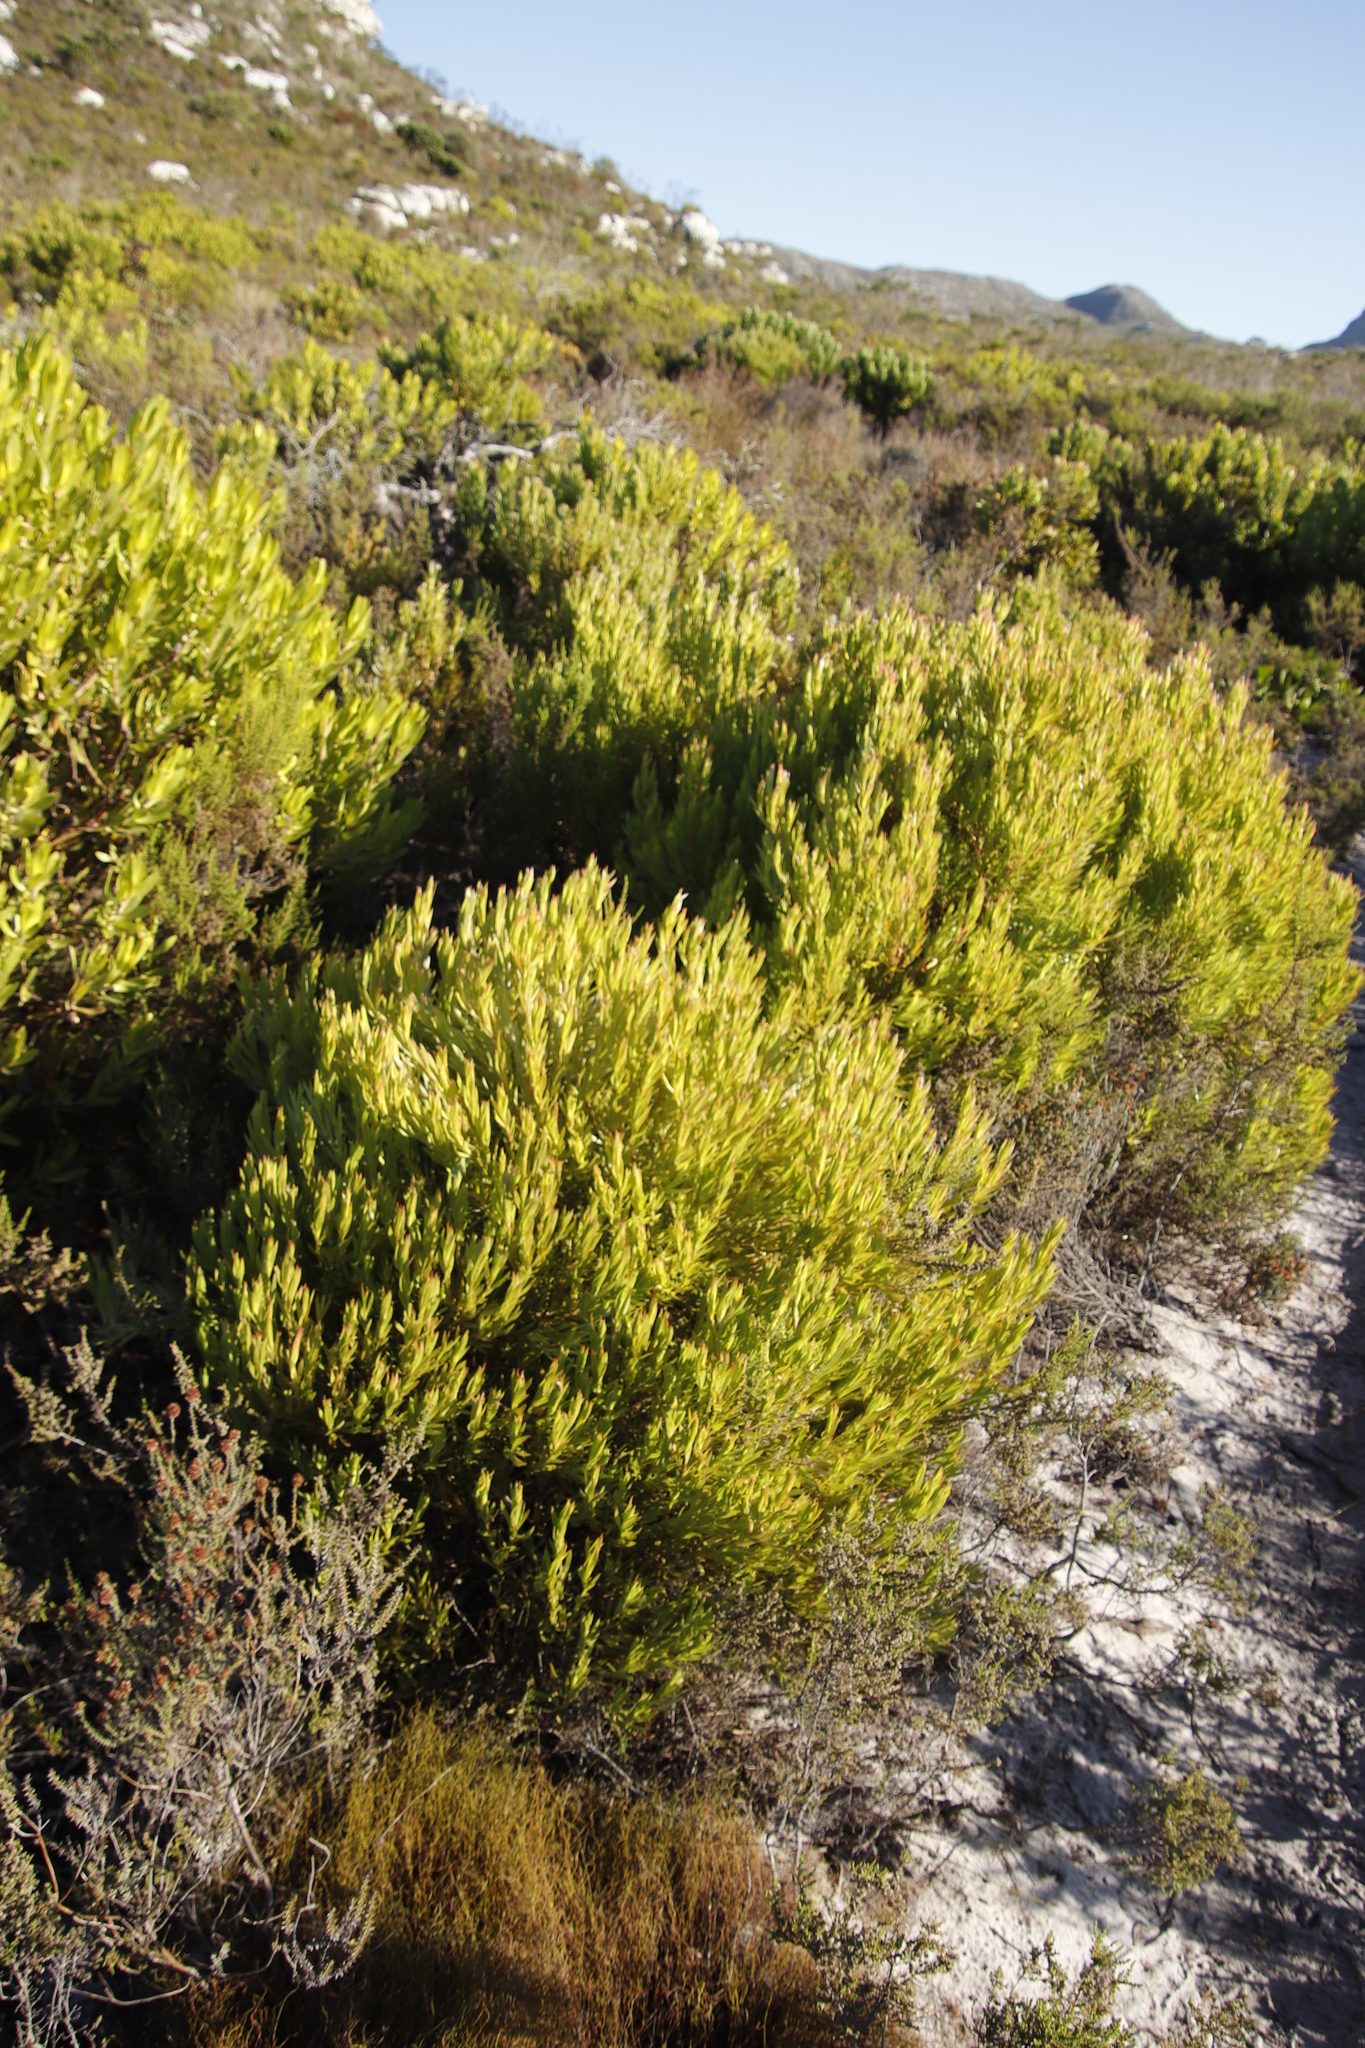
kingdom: Plantae
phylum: Tracheophyta
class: Magnoliopsida
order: Proteales
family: Proteaceae
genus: Leucadendron
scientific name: Leucadendron xanthoconus
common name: Sickle-leaf conebush
